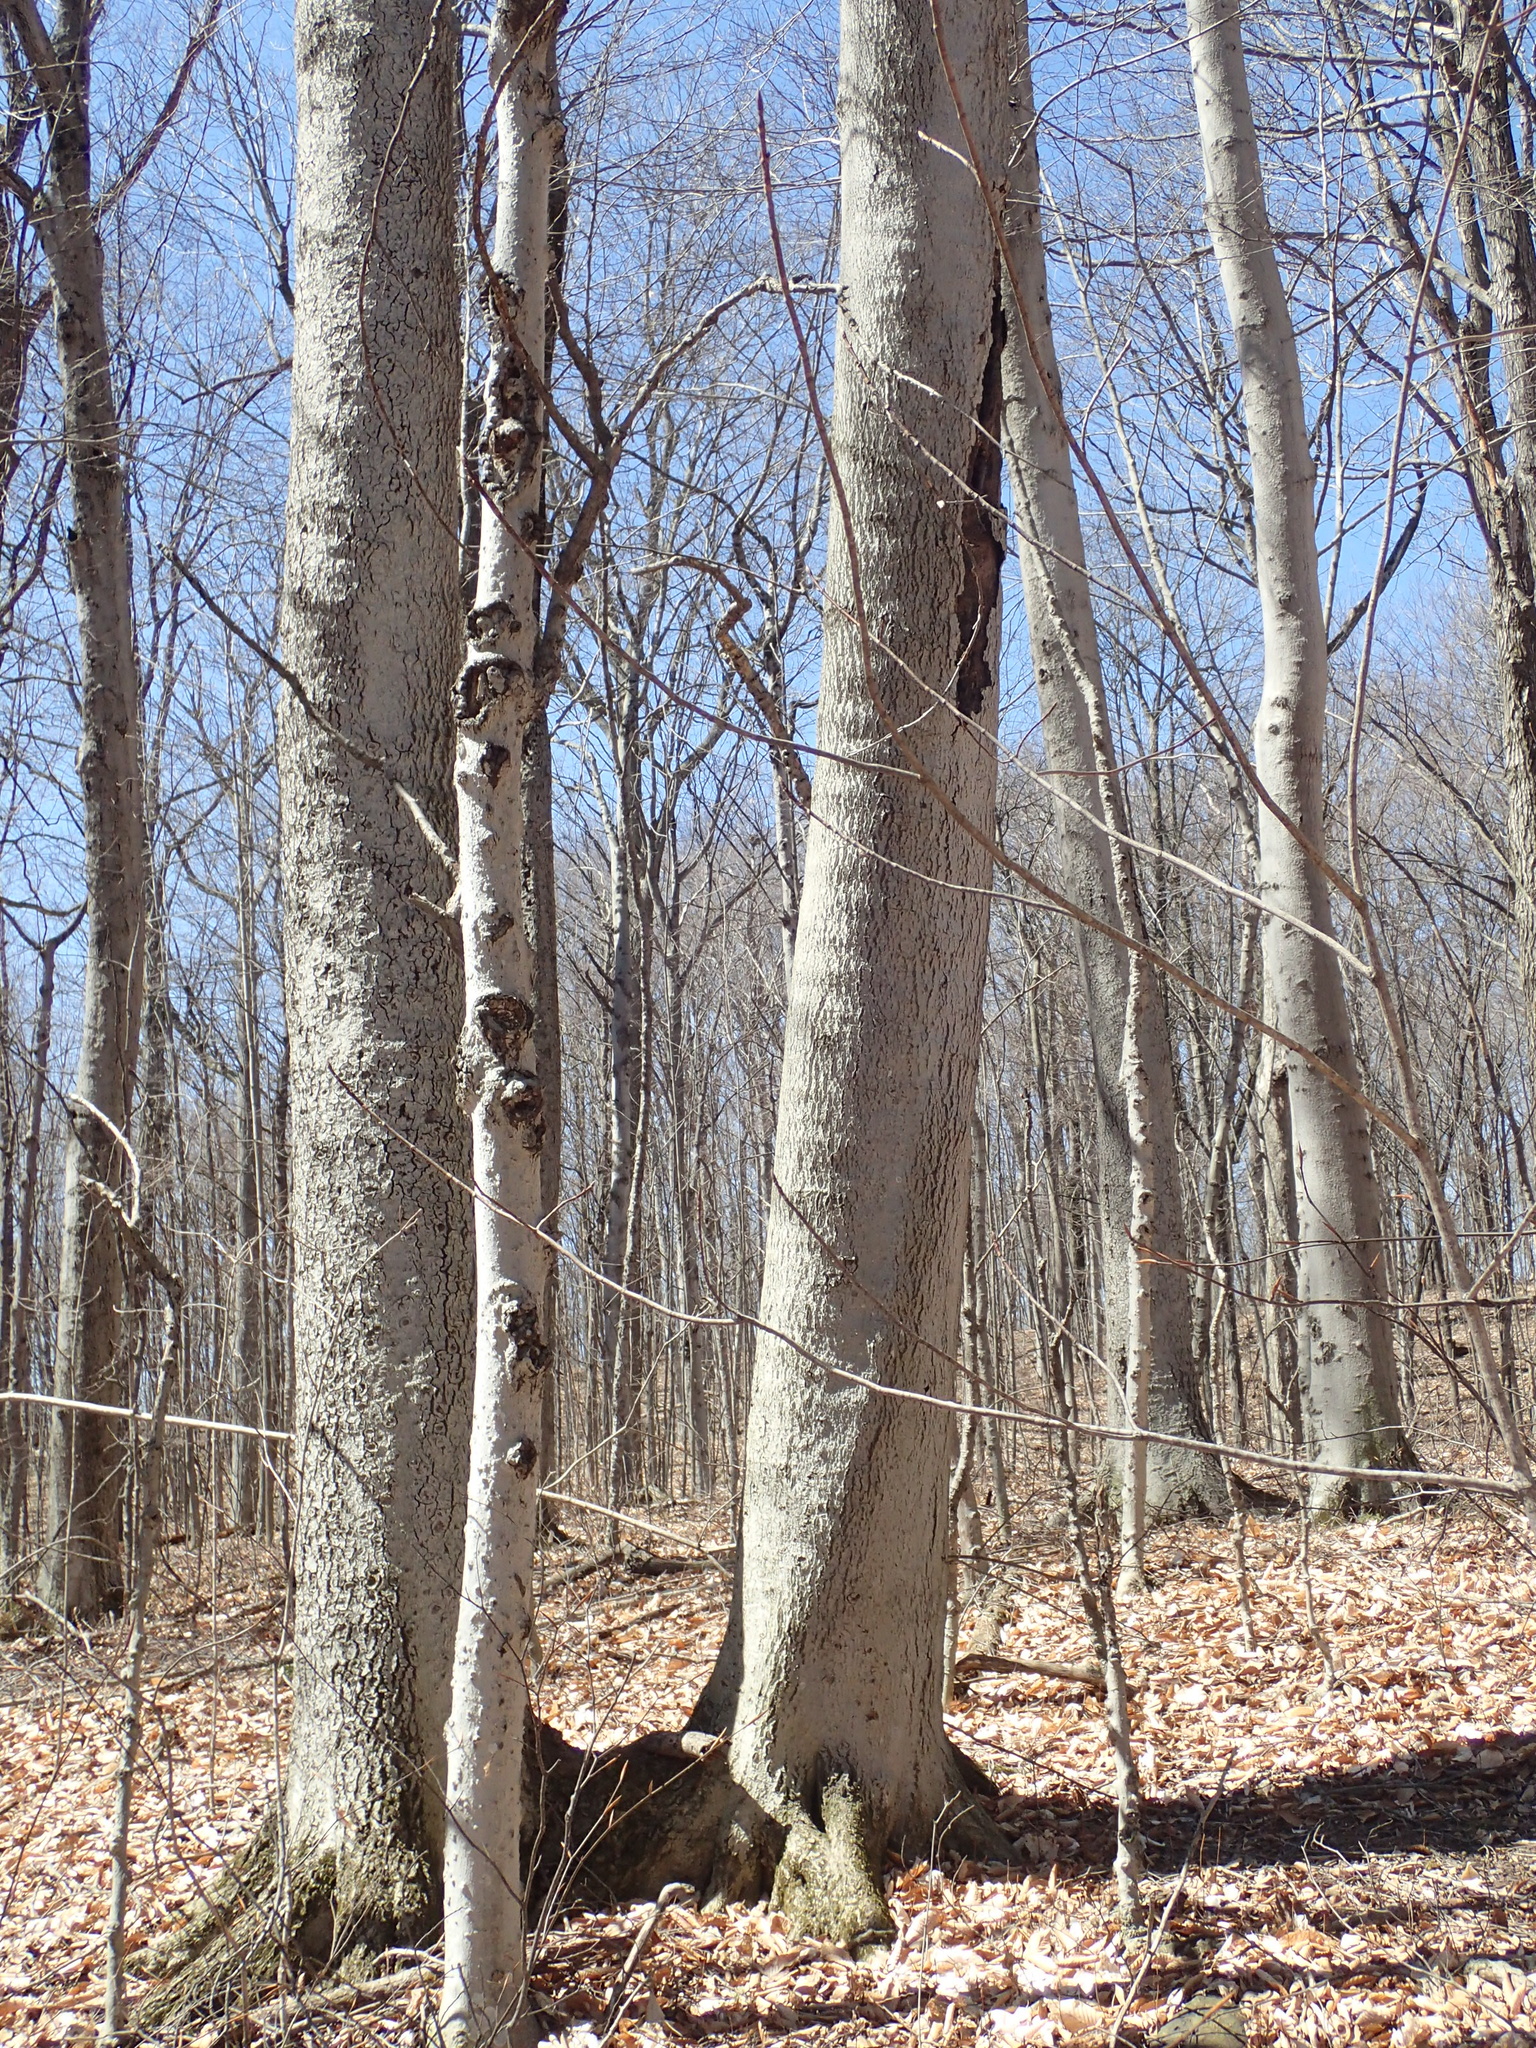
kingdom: Plantae
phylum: Tracheophyta
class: Magnoliopsida
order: Fagales
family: Fagaceae
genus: Fagus
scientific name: Fagus grandifolia
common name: American beech
